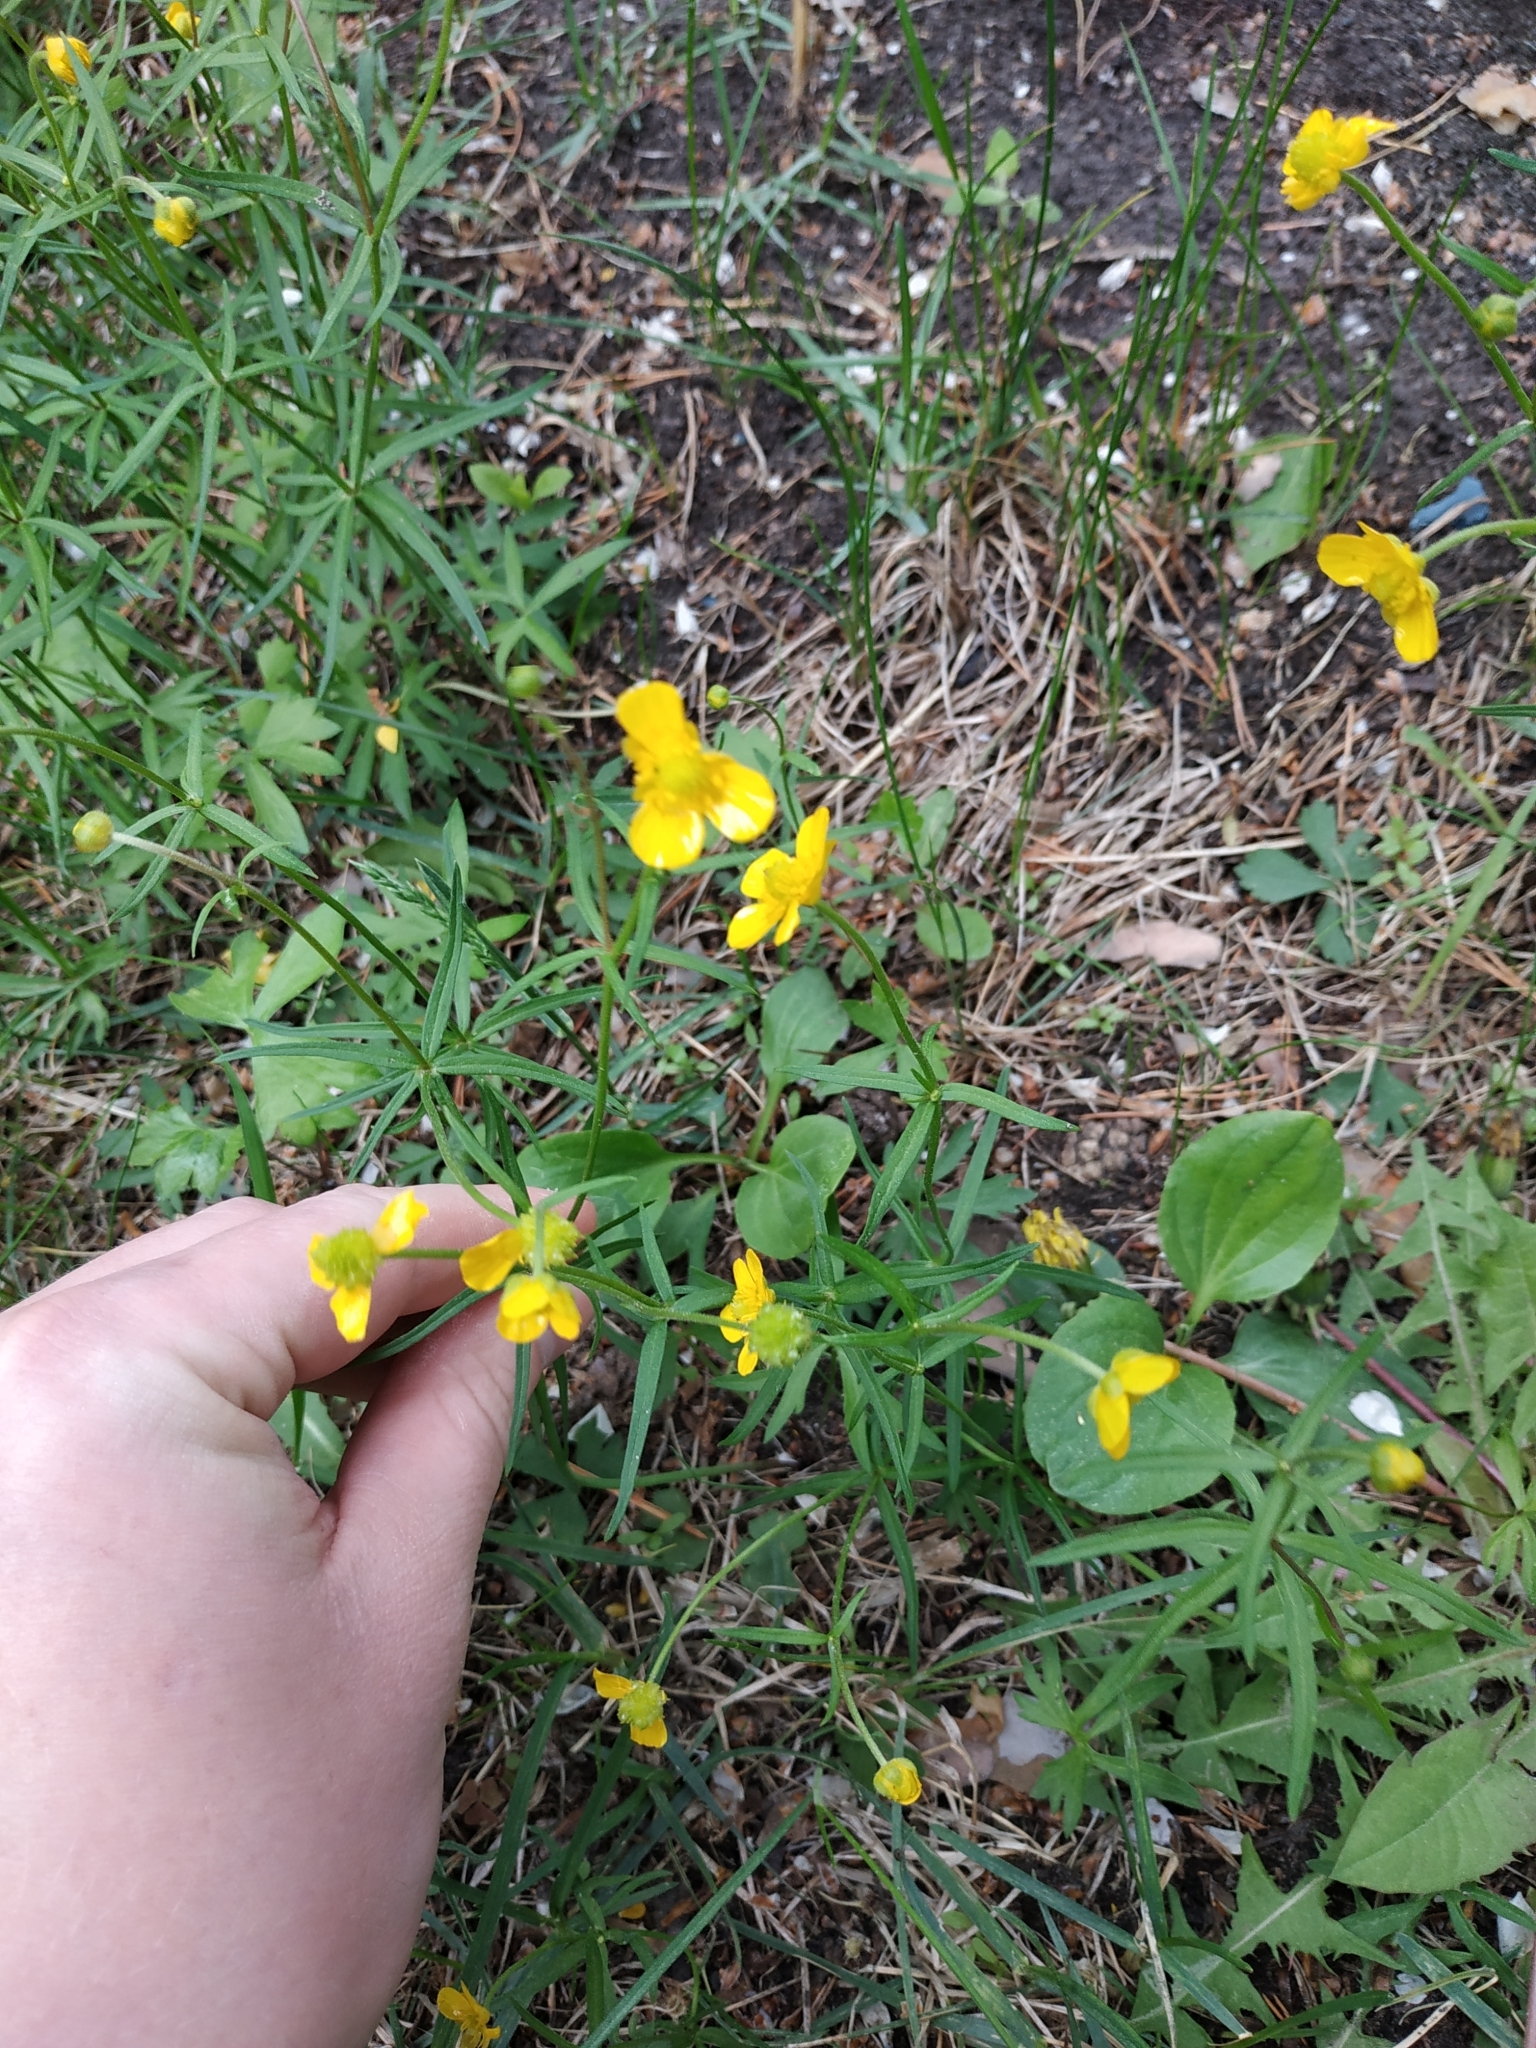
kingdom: Plantae
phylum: Tracheophyta
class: Magnoliopsida
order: Ranunculales
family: Ranunculaceae
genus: Ranunculus
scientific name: Ranunculus auricomus
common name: Goldilocks buttercup
